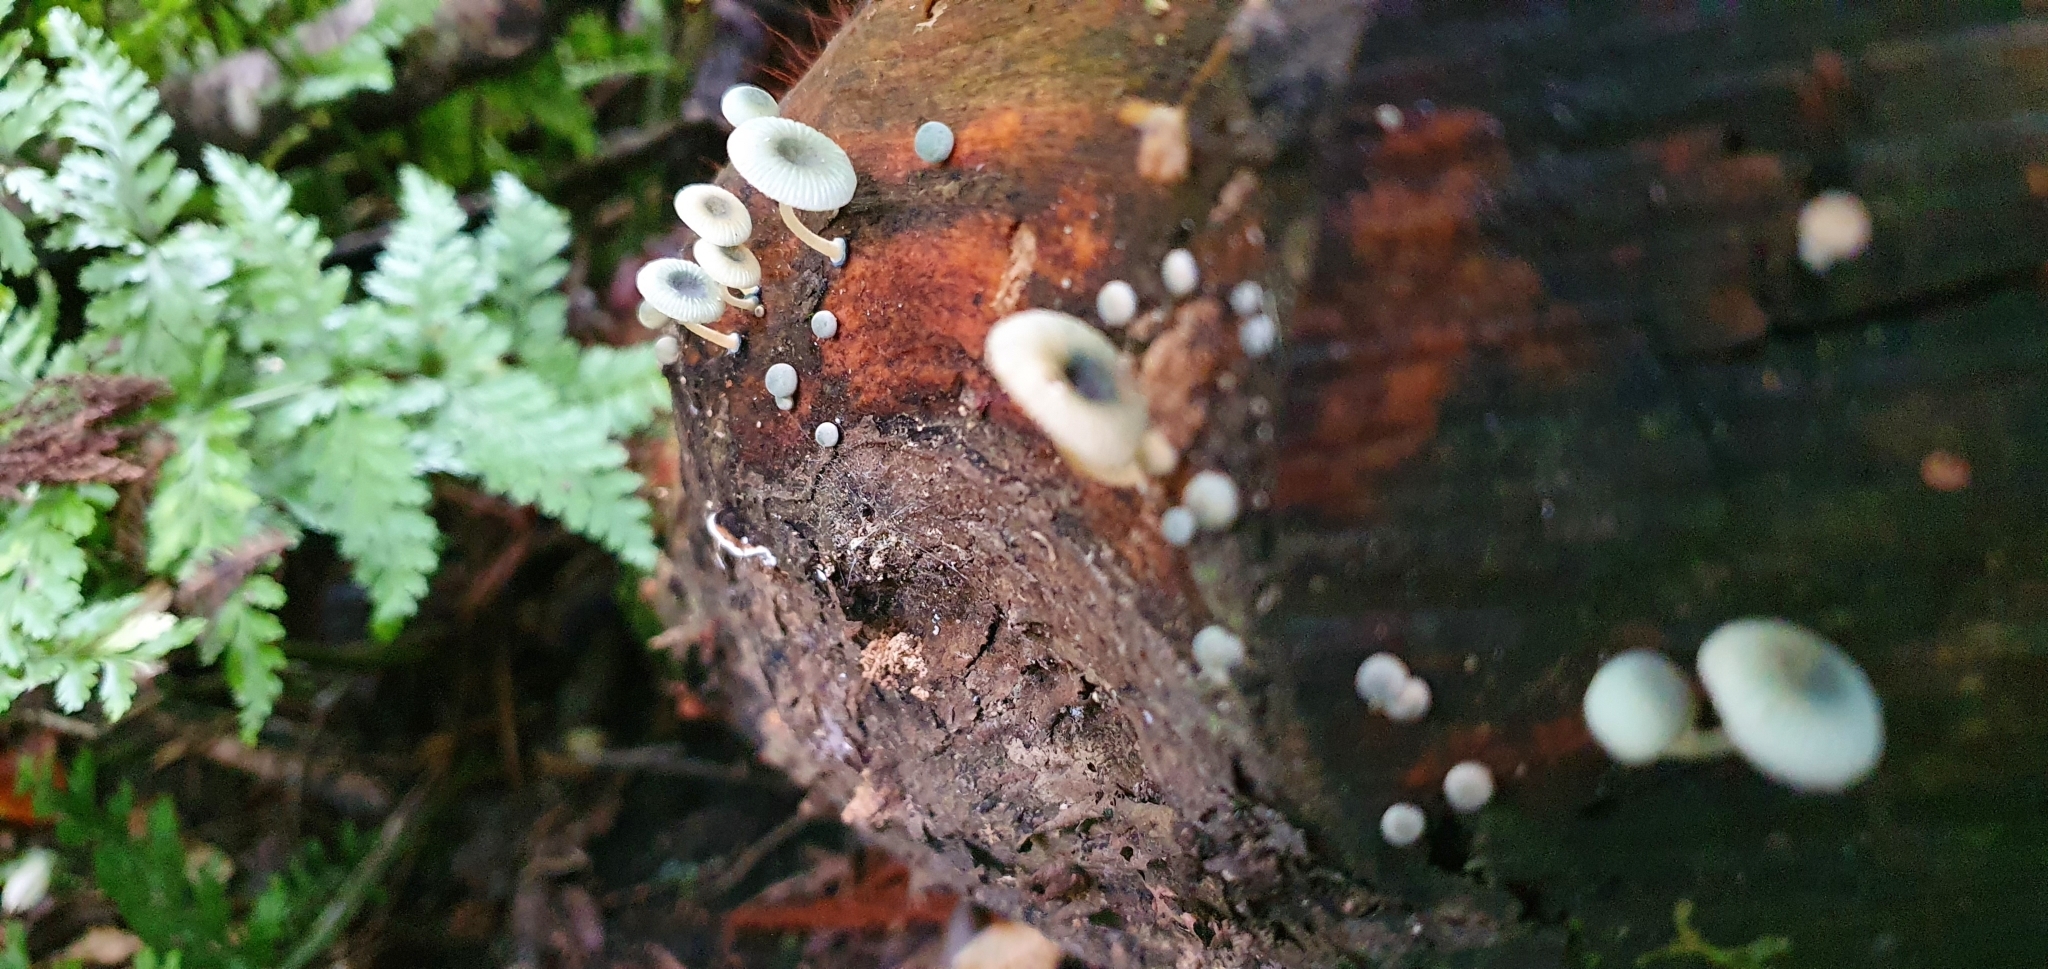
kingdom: Fungi
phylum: Basidiomycota
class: Agaricomycetes
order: Agaricales
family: Mycenaceae
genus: Mycena
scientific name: Mycena interrupta
